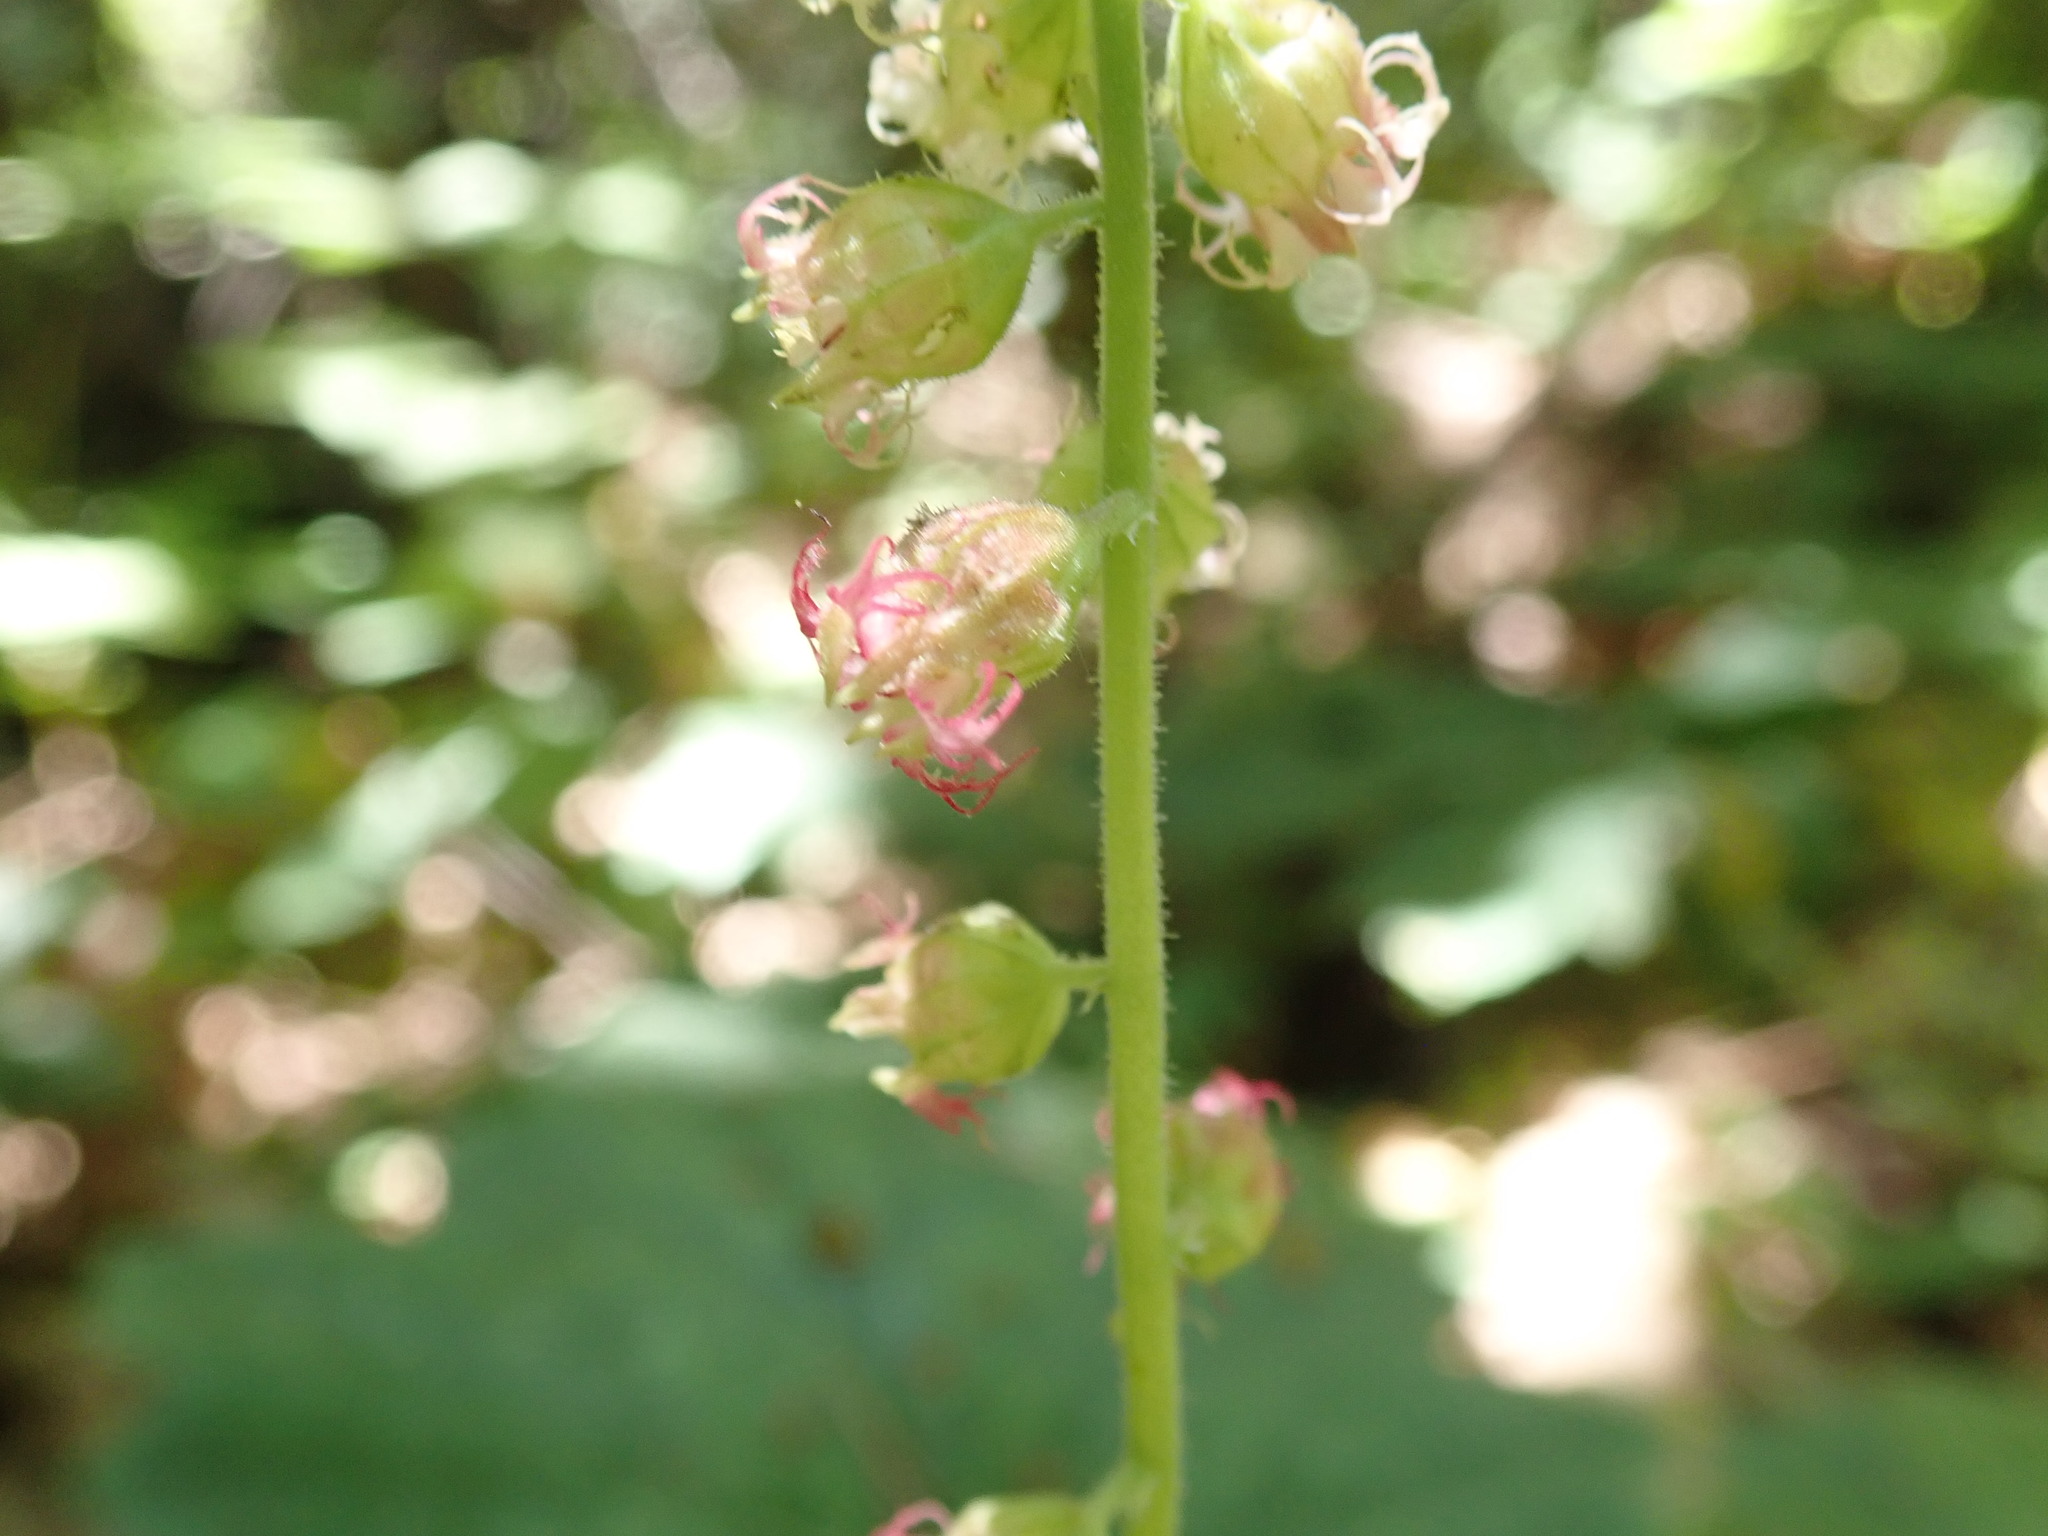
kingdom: Plantae
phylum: Tracheophyta
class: Magnoliopsida
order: Saxifragales
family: Saxifragaceae
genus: Tellima
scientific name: Tellima grandiflora
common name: Fringecups
